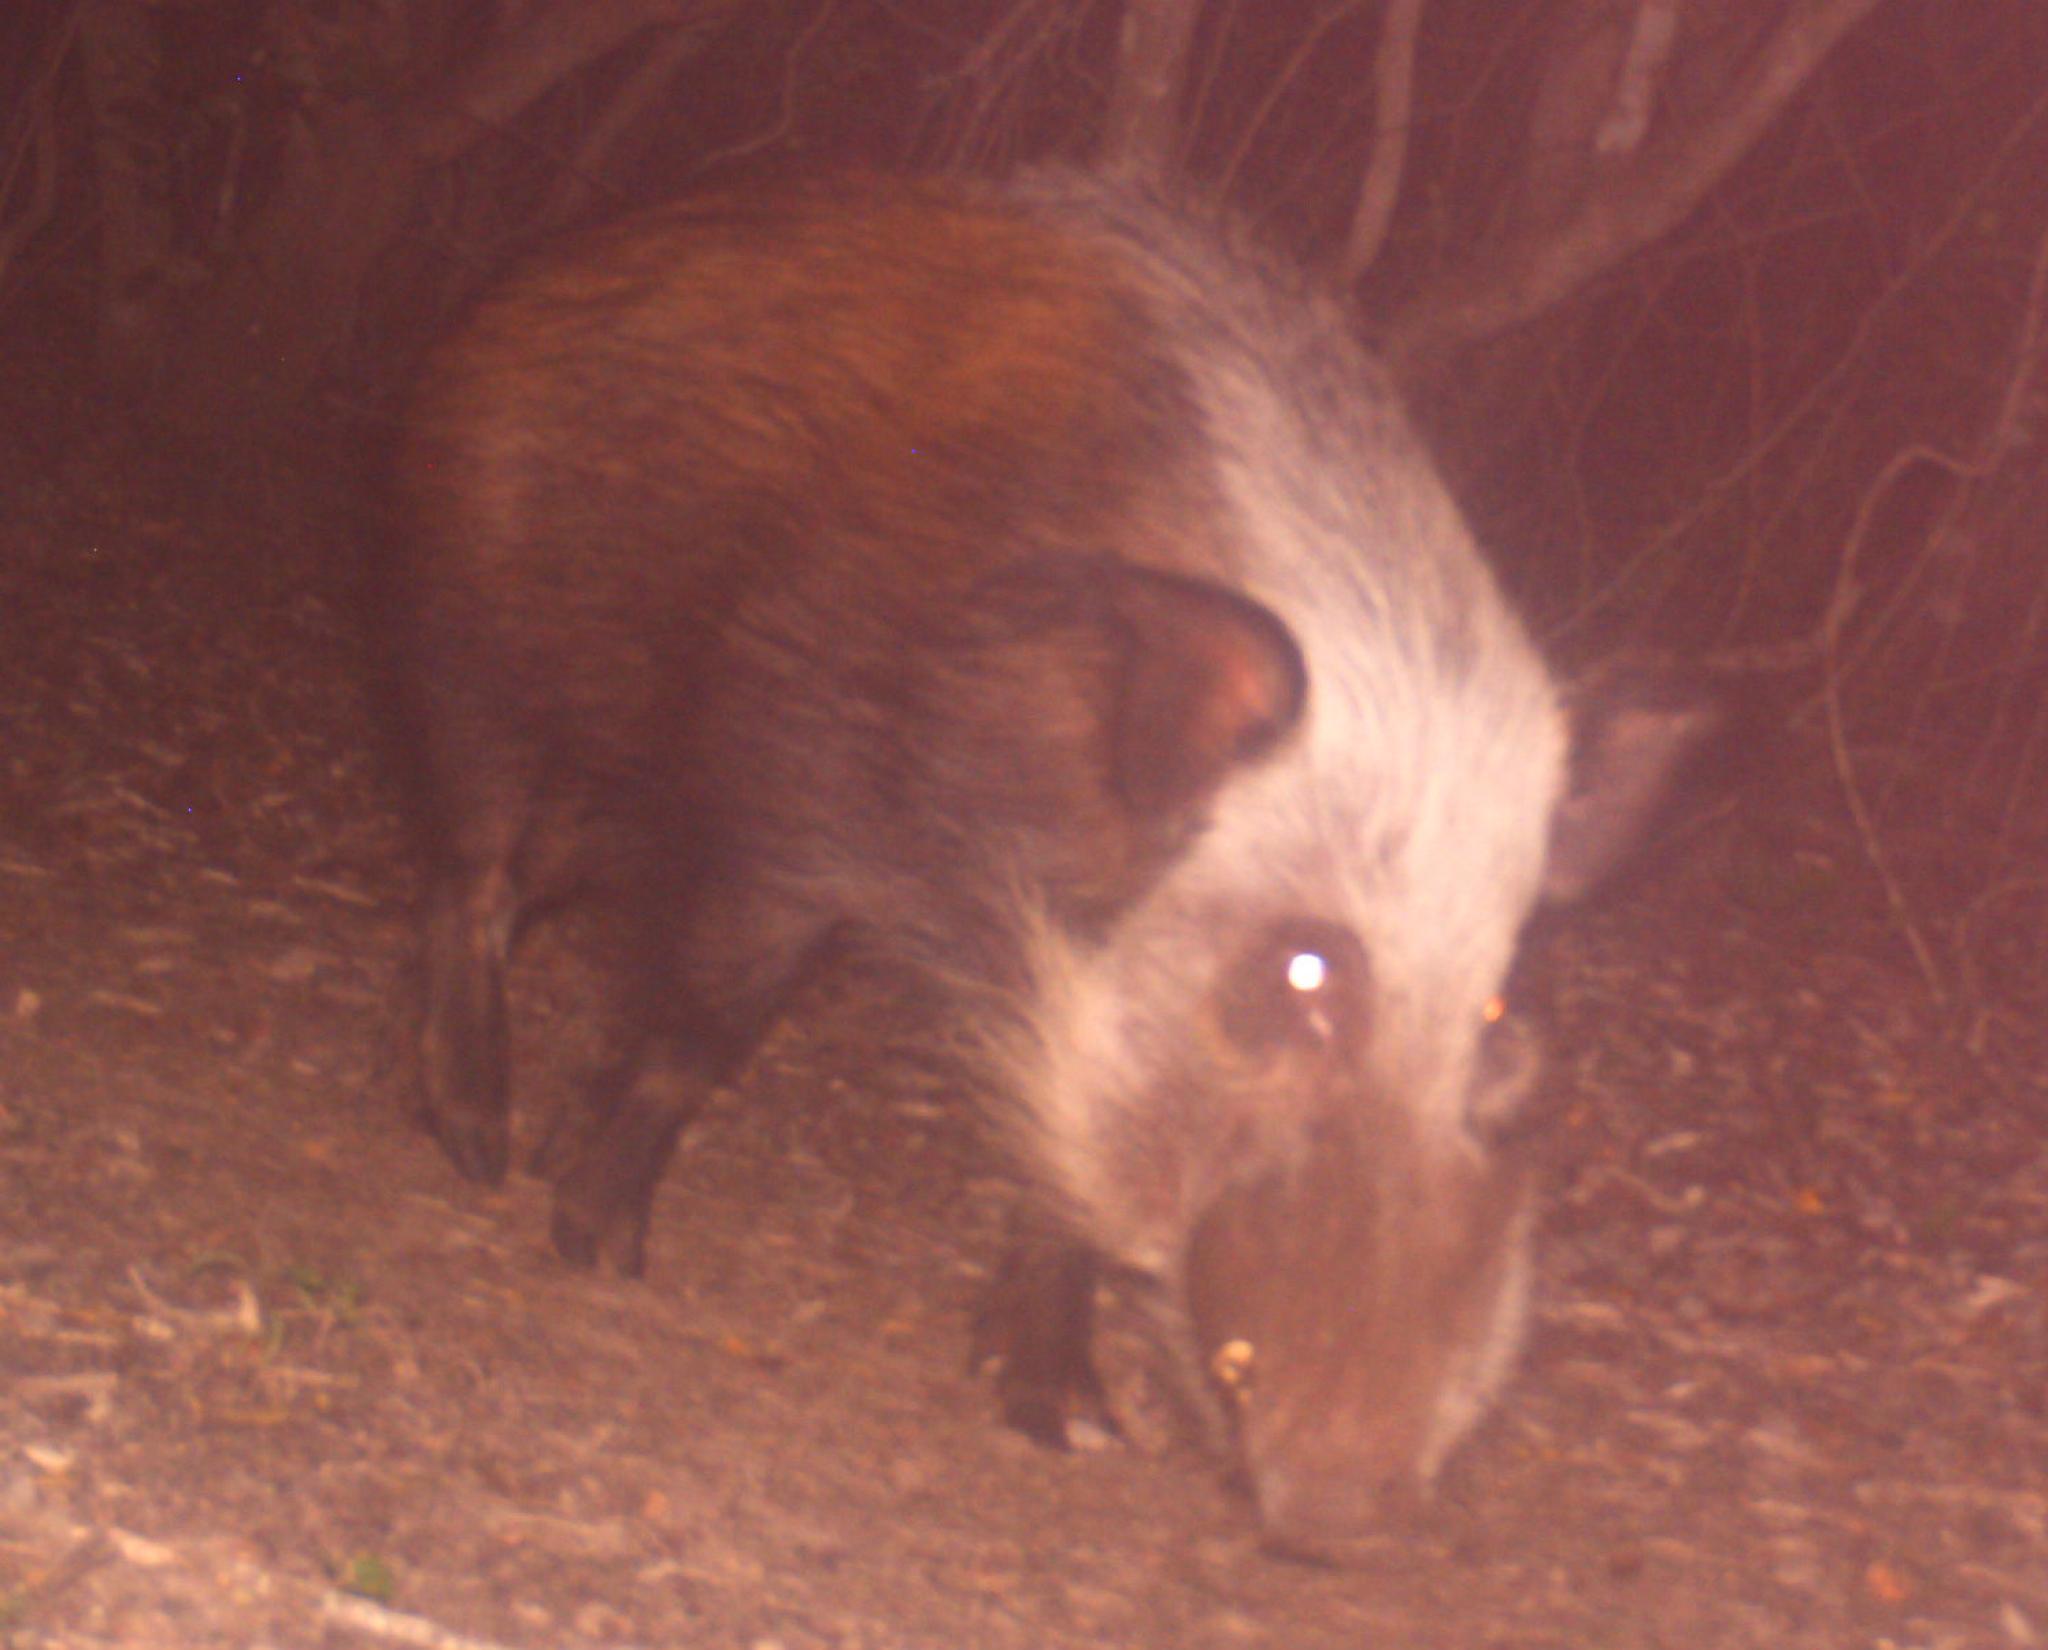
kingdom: Animalia
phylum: Chordata
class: Mammalia
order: Artiodactyla
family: Suidae
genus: Potamochoerus
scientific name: Potamochoerus larvatus
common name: Bushpig
